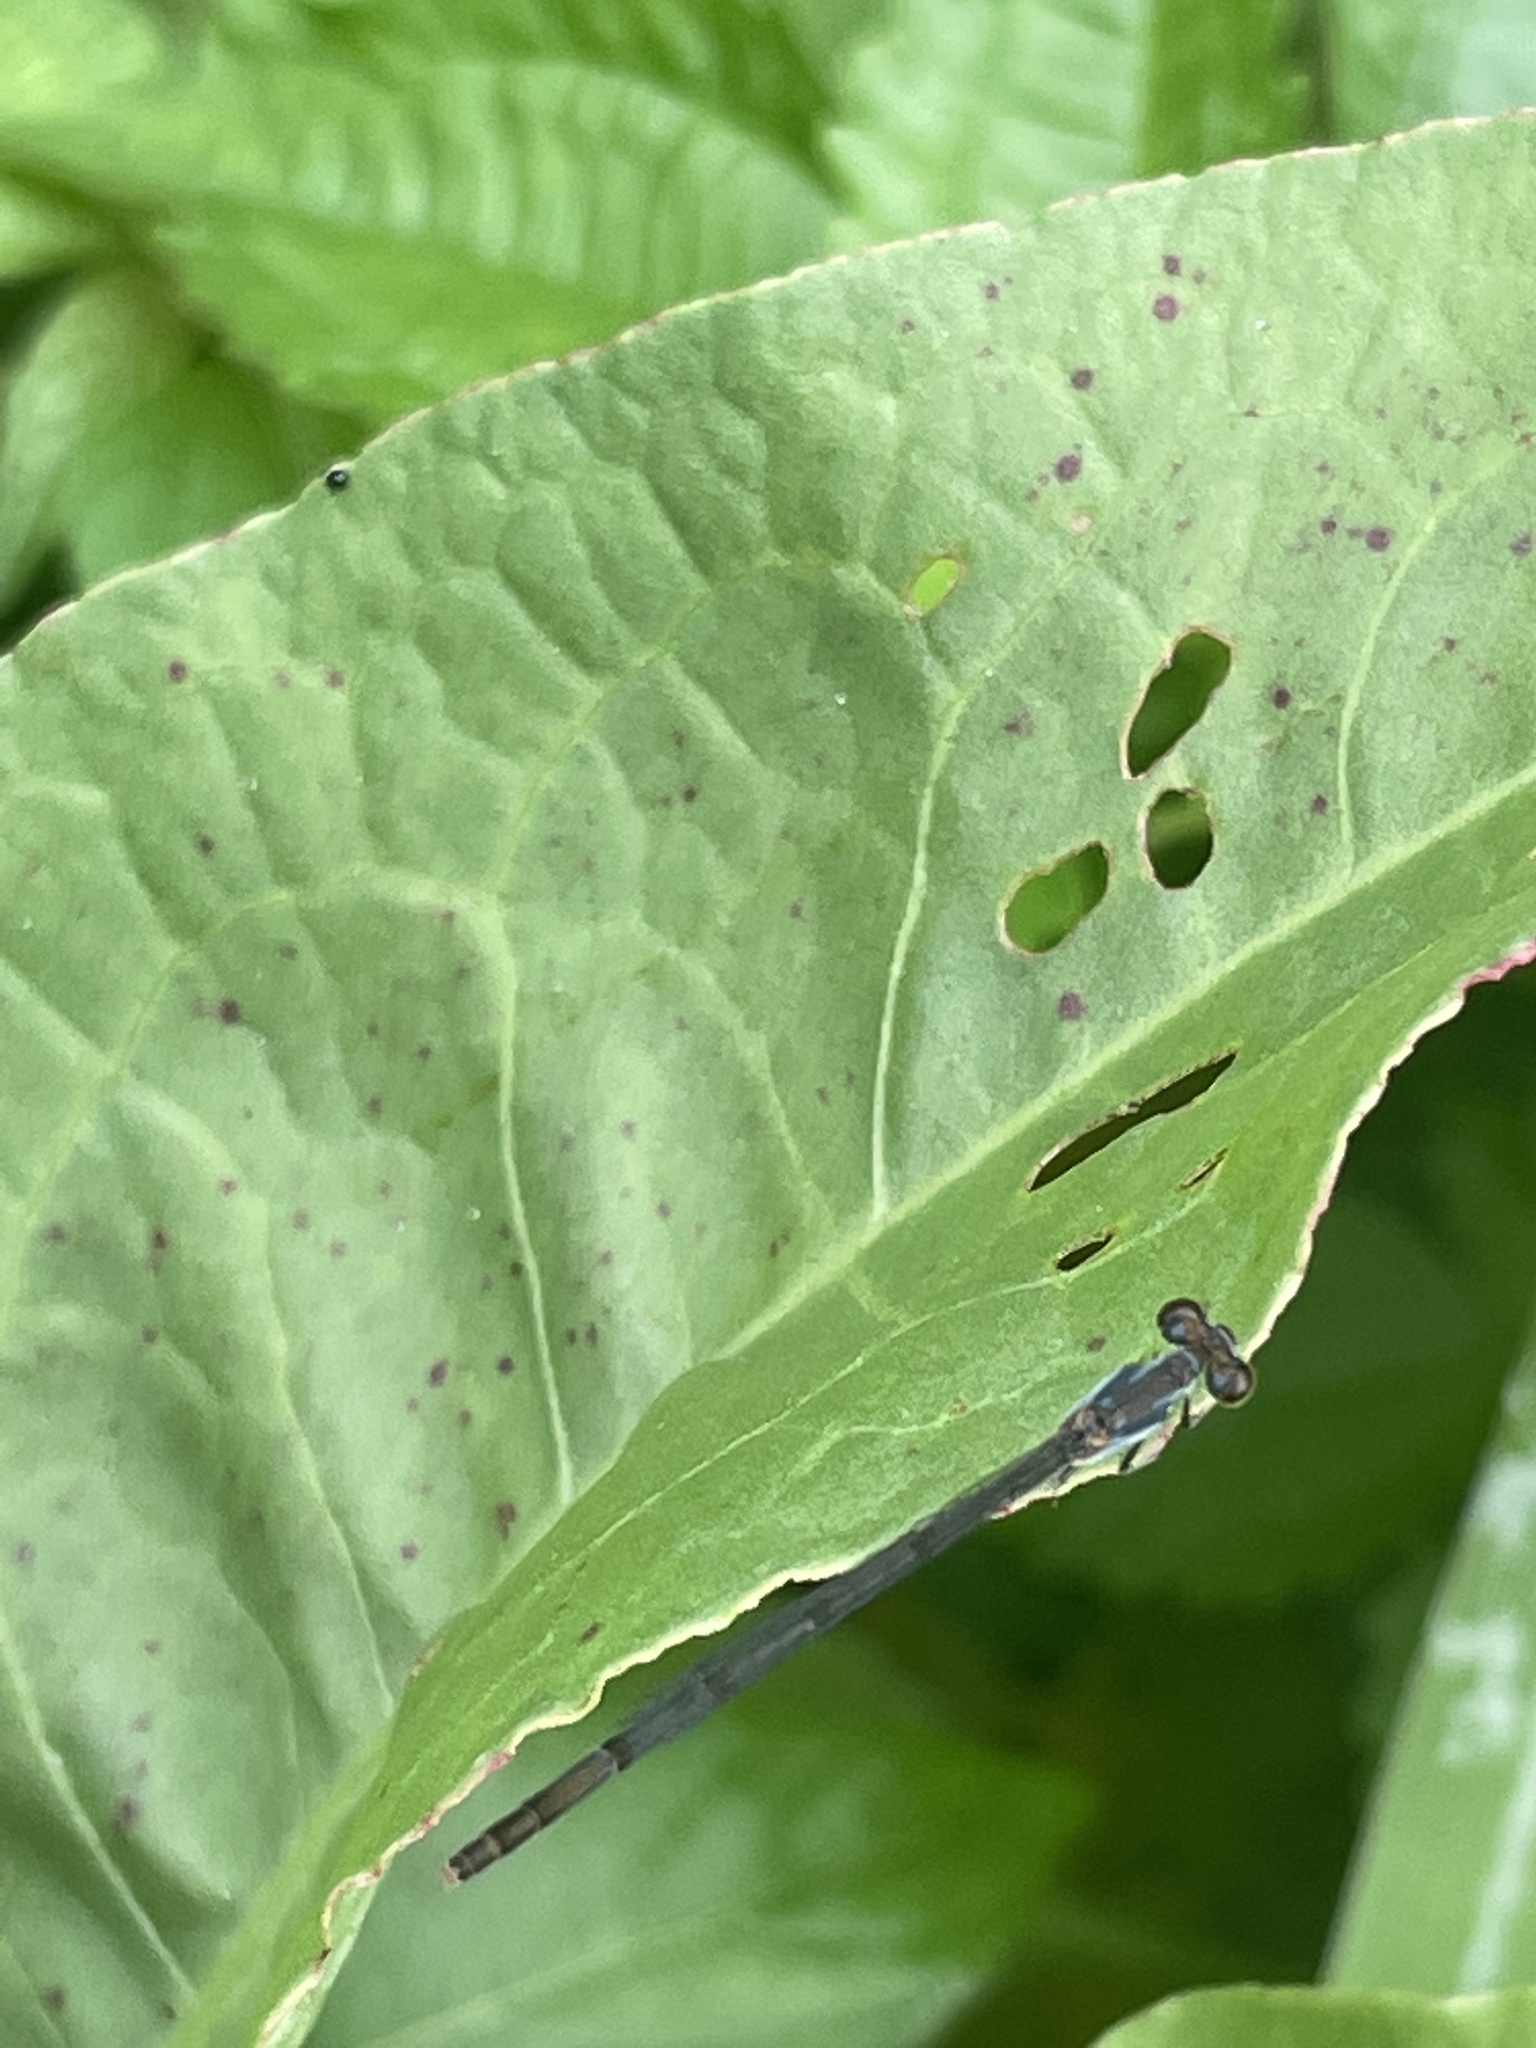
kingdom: Animalia
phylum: Arthropoda
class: Insecta
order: Odonata
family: Coenagrionidae
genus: Ischnura
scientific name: Ischnura posita
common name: Fragile forktail
